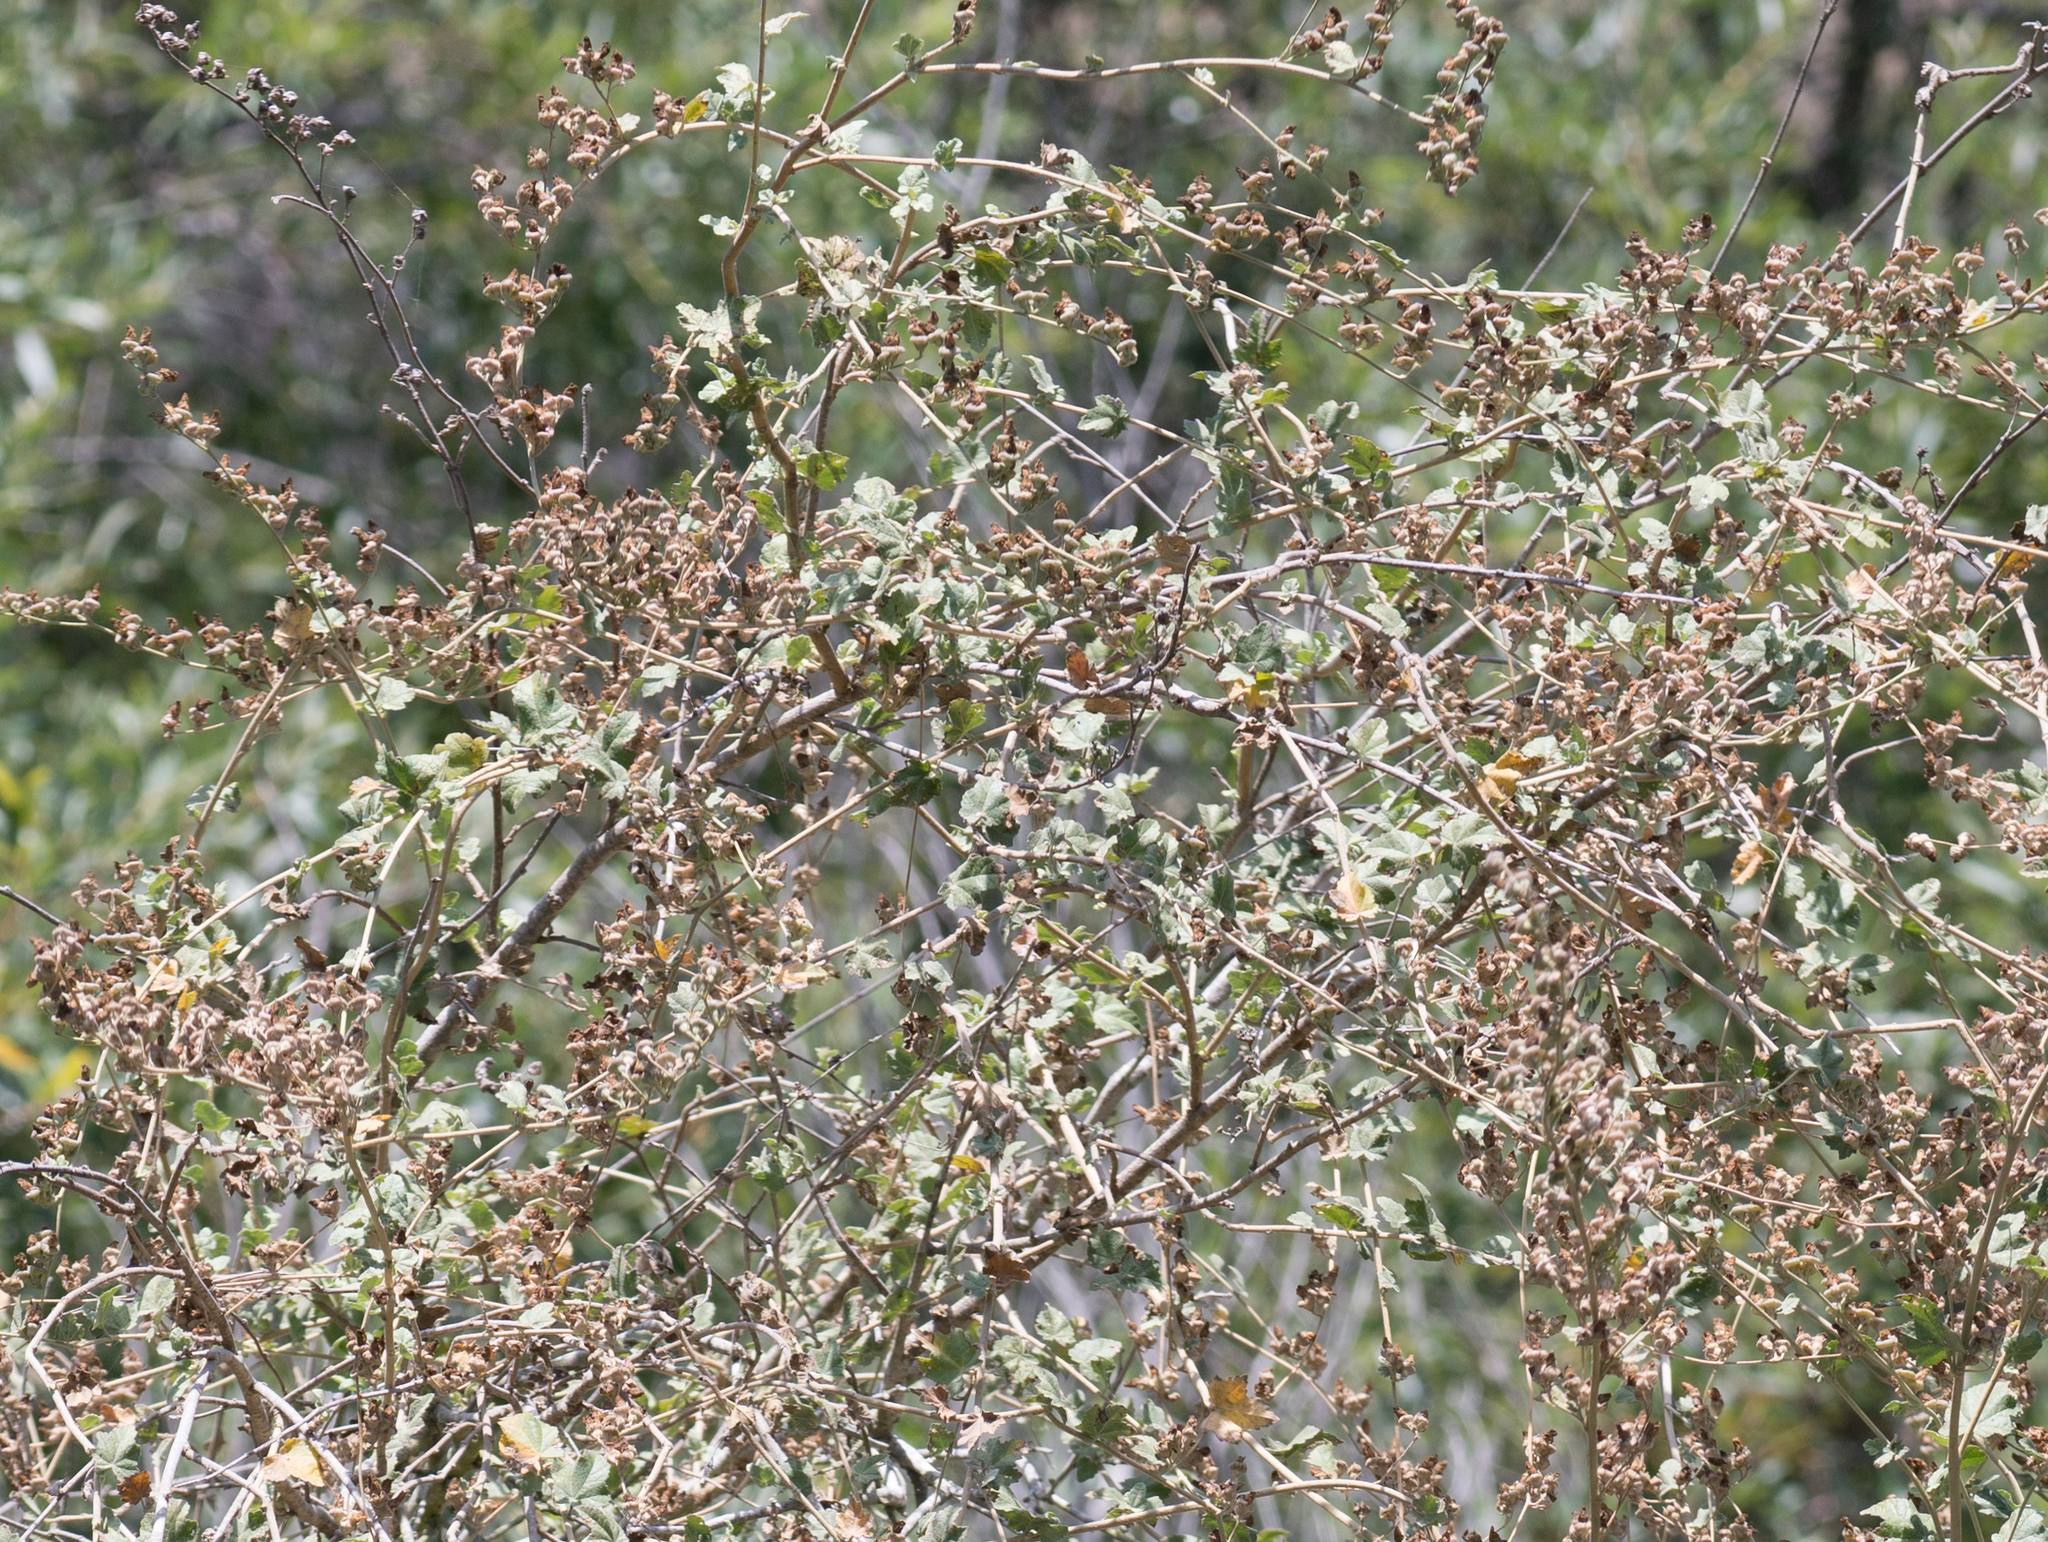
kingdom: Plantae
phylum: Tracheophyta
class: Magnoliopsida
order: Malvales
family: Malvaceae
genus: Malacothamnus
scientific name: Malacothamnus fasciculatus
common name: Sant cruz island bush-mallow
